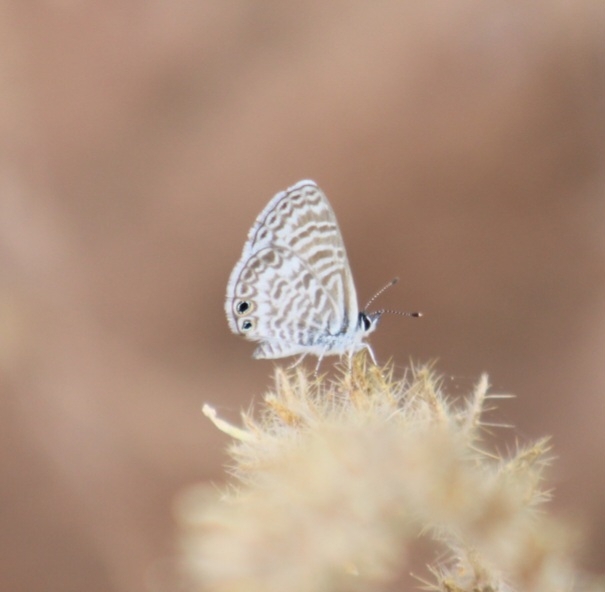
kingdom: Animalia
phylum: Arthropoda
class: Insecta
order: Lepidoptera
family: Lycaenidae
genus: Leptotes
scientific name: Leptotes marina
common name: Marine blue
